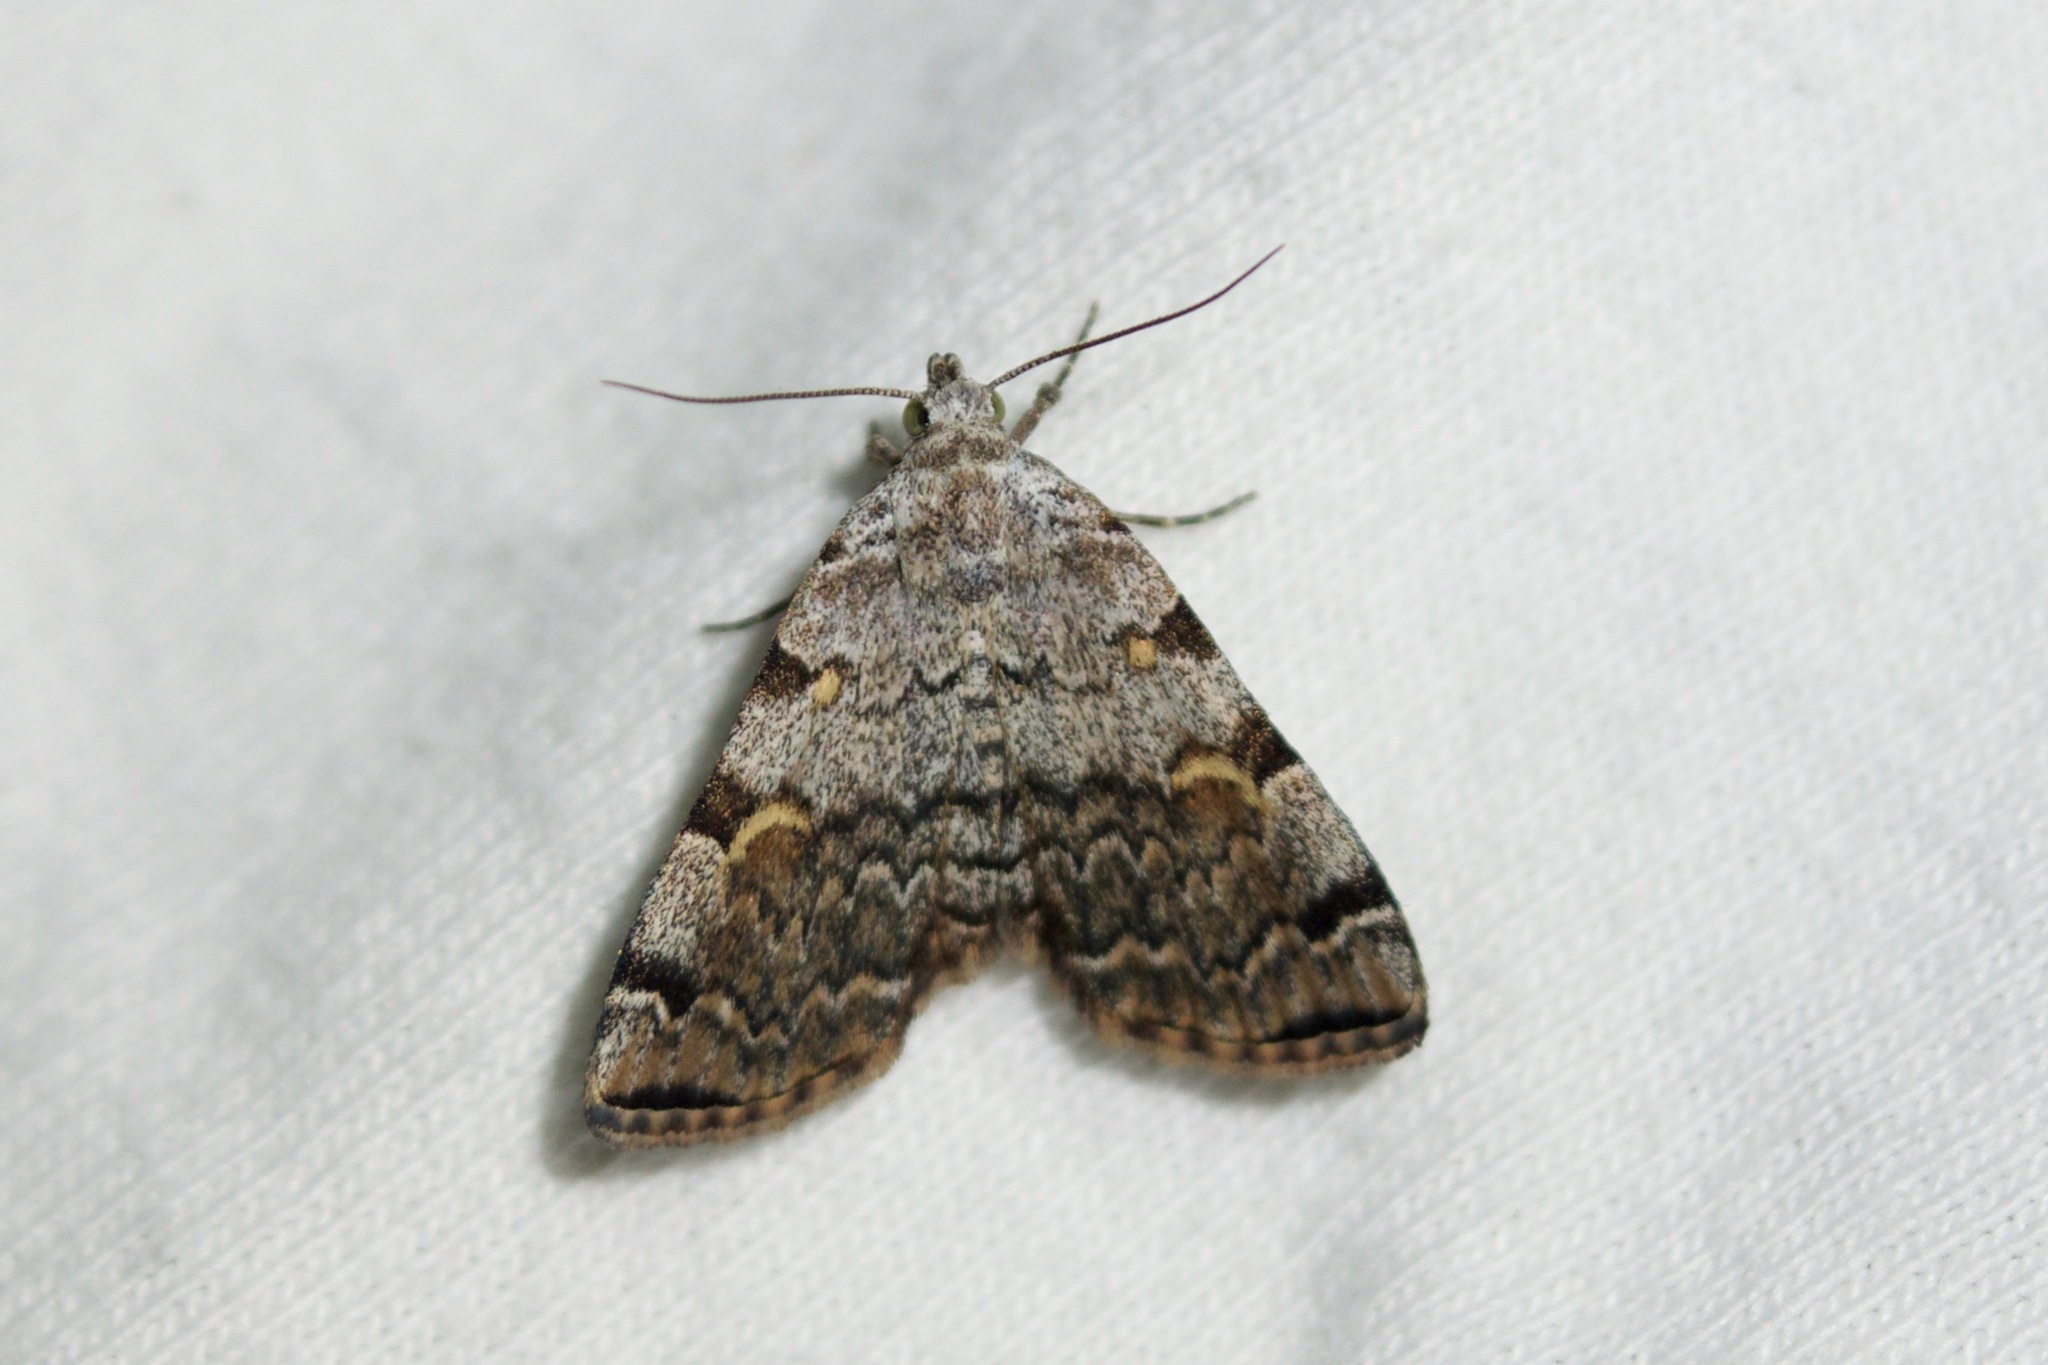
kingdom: Animalia
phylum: Arthropoda
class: Insecta
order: Lepidoptera
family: Erebidae
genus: Idia
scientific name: Idia americalis
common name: American idia moth
